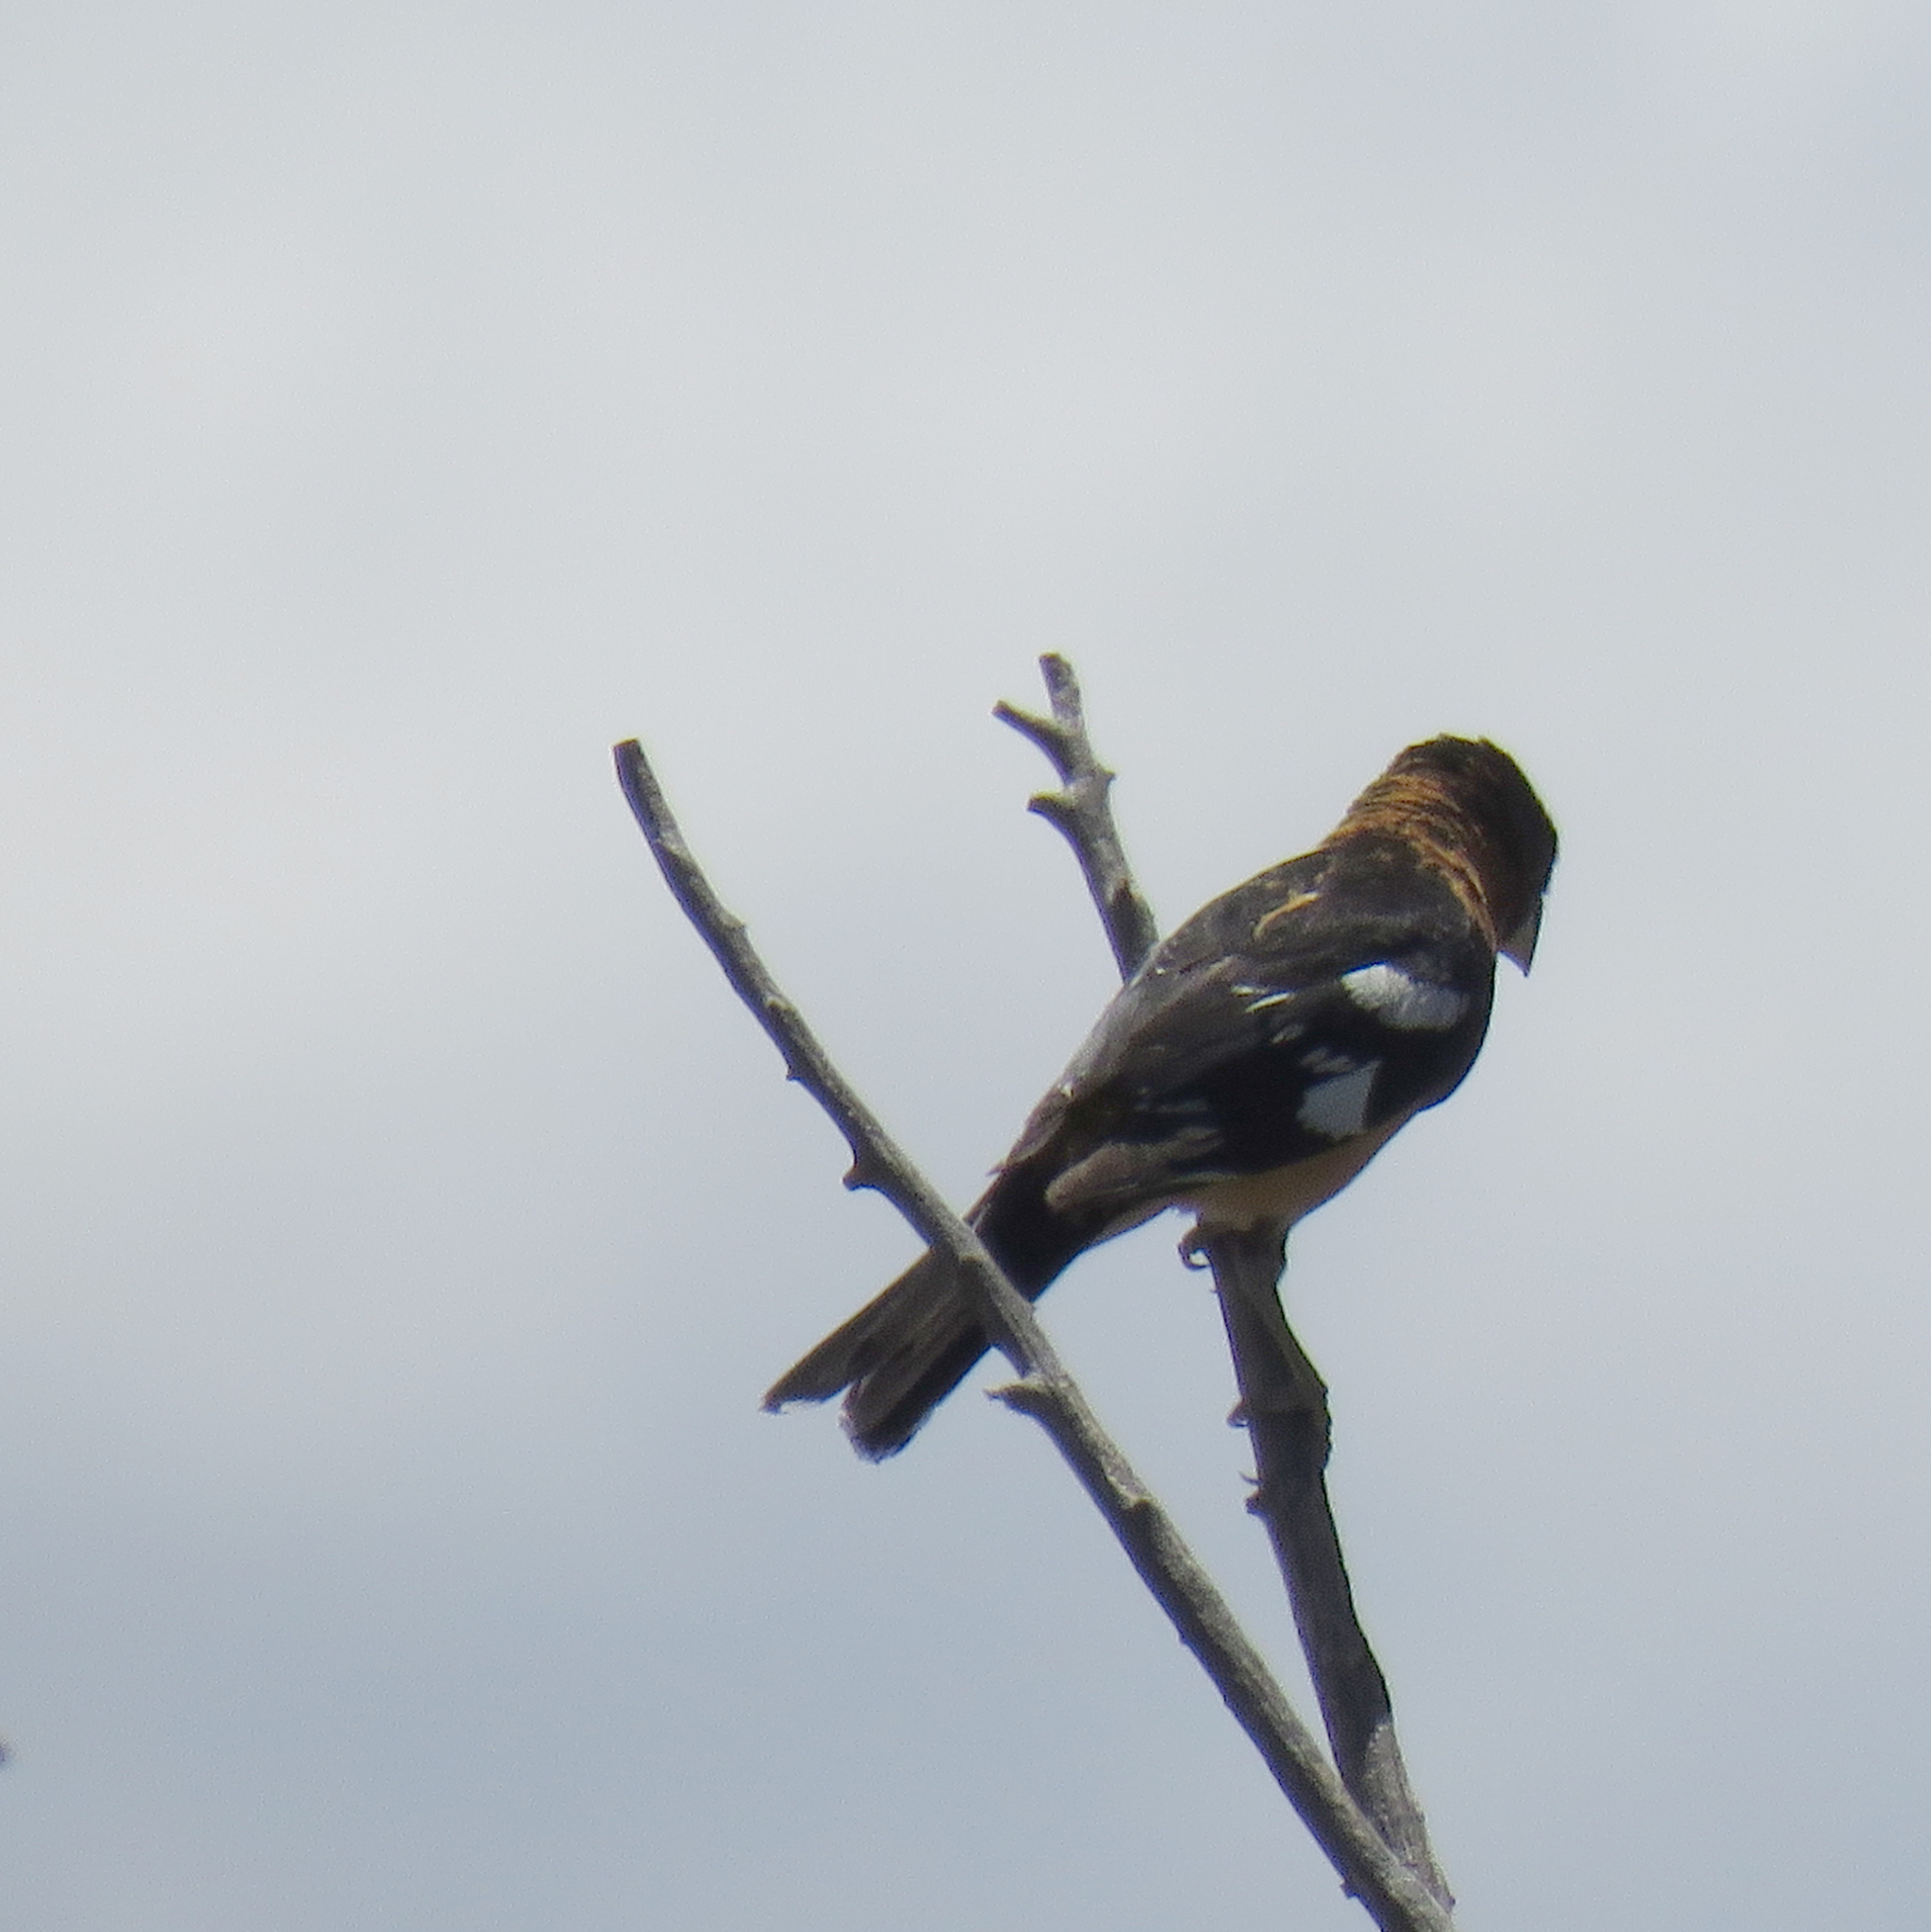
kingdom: Animalia
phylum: Chordata
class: Aves
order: Passeriformes
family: Cardinalidae
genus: Pheucticus
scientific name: Pheucticus melanocephalus
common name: Black-headed grosbeak
